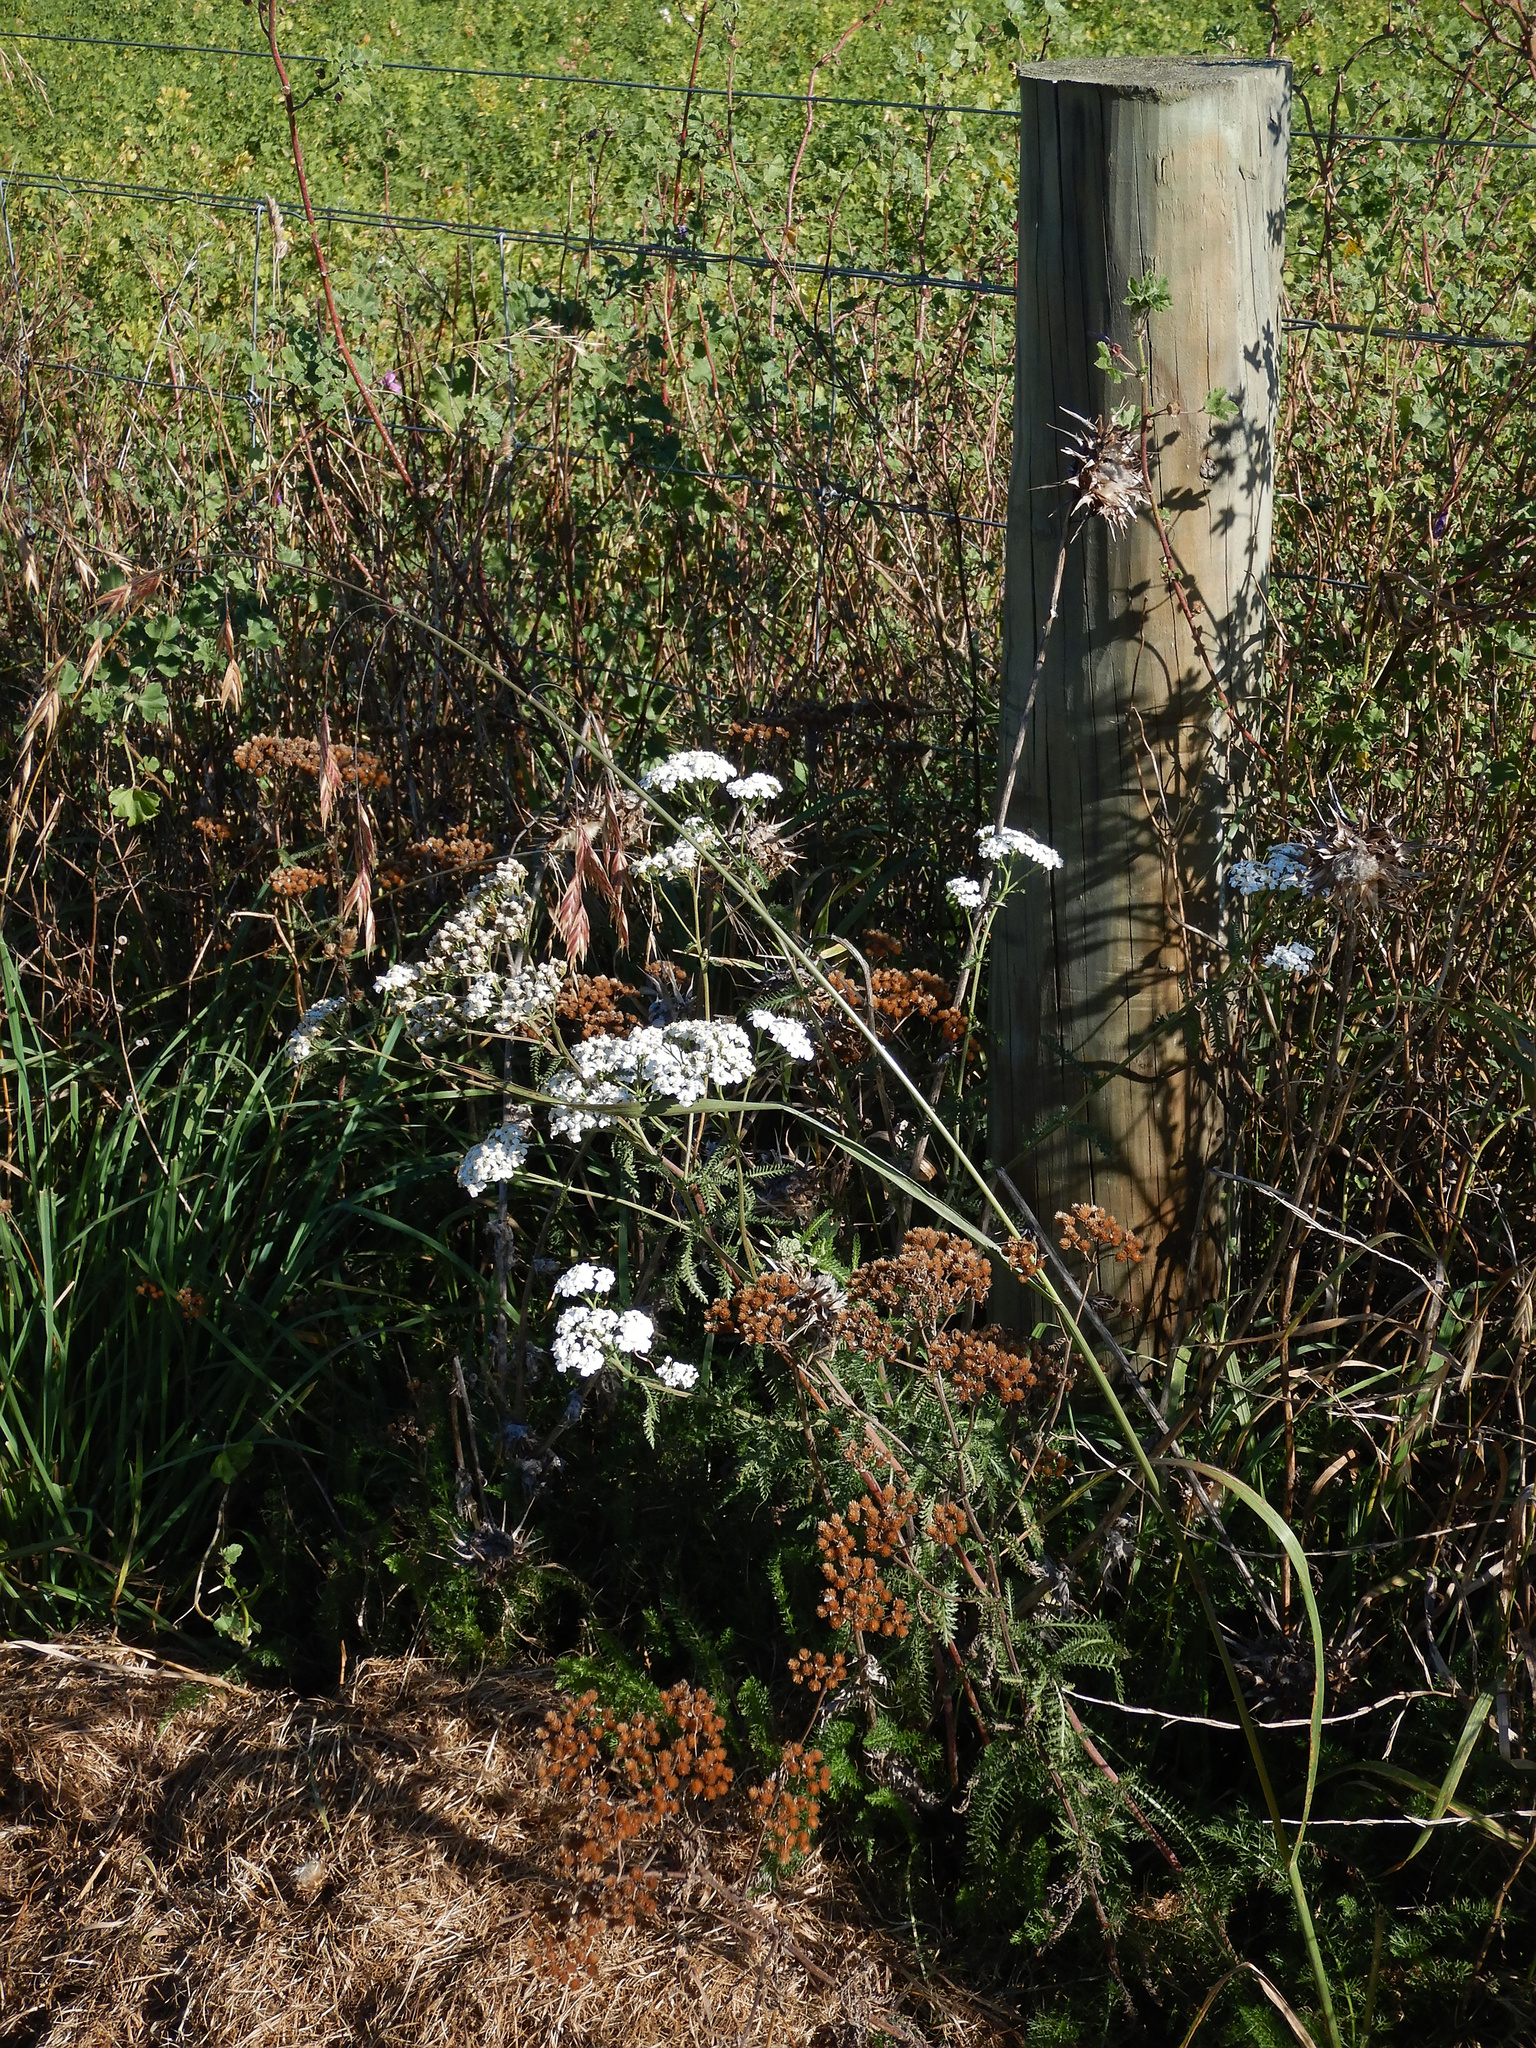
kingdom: Plantae
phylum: Tracheophyta
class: Magnoliopsida
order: Asterales
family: Asteraceae
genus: Achillea
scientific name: Achillea millefolium
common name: Yarrow
